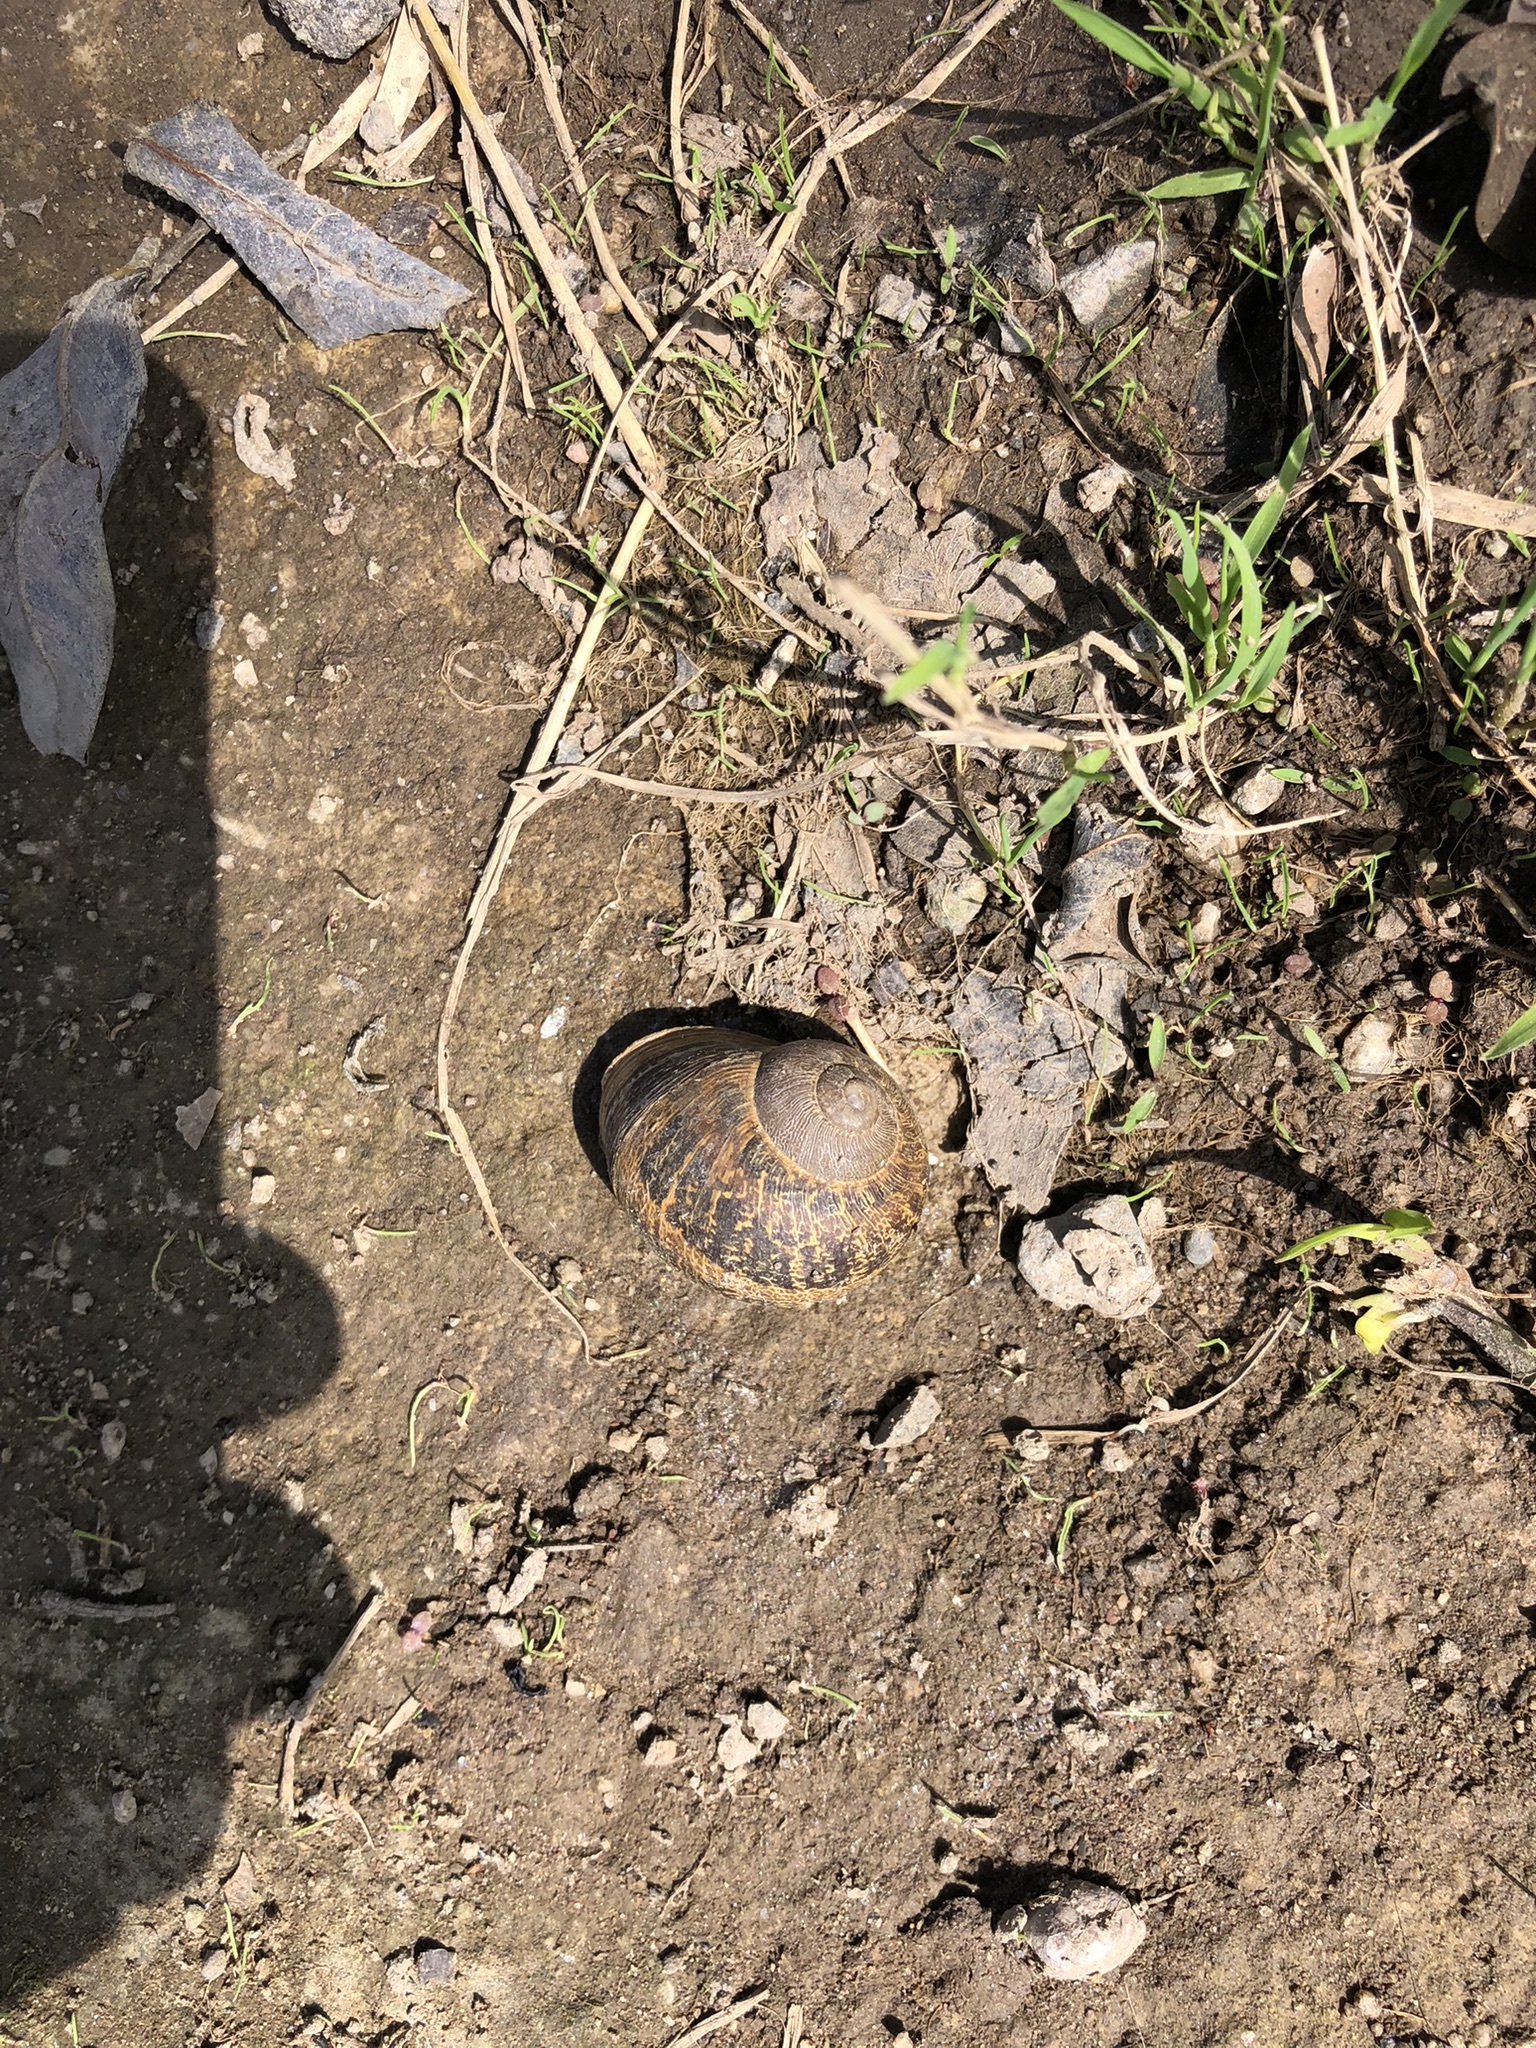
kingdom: Animalia
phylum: Mollusca
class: Gastropoda
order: Stylommatophora
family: Helicidae
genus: Cornu
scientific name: Cornu aspersum
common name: Brown garden snail
